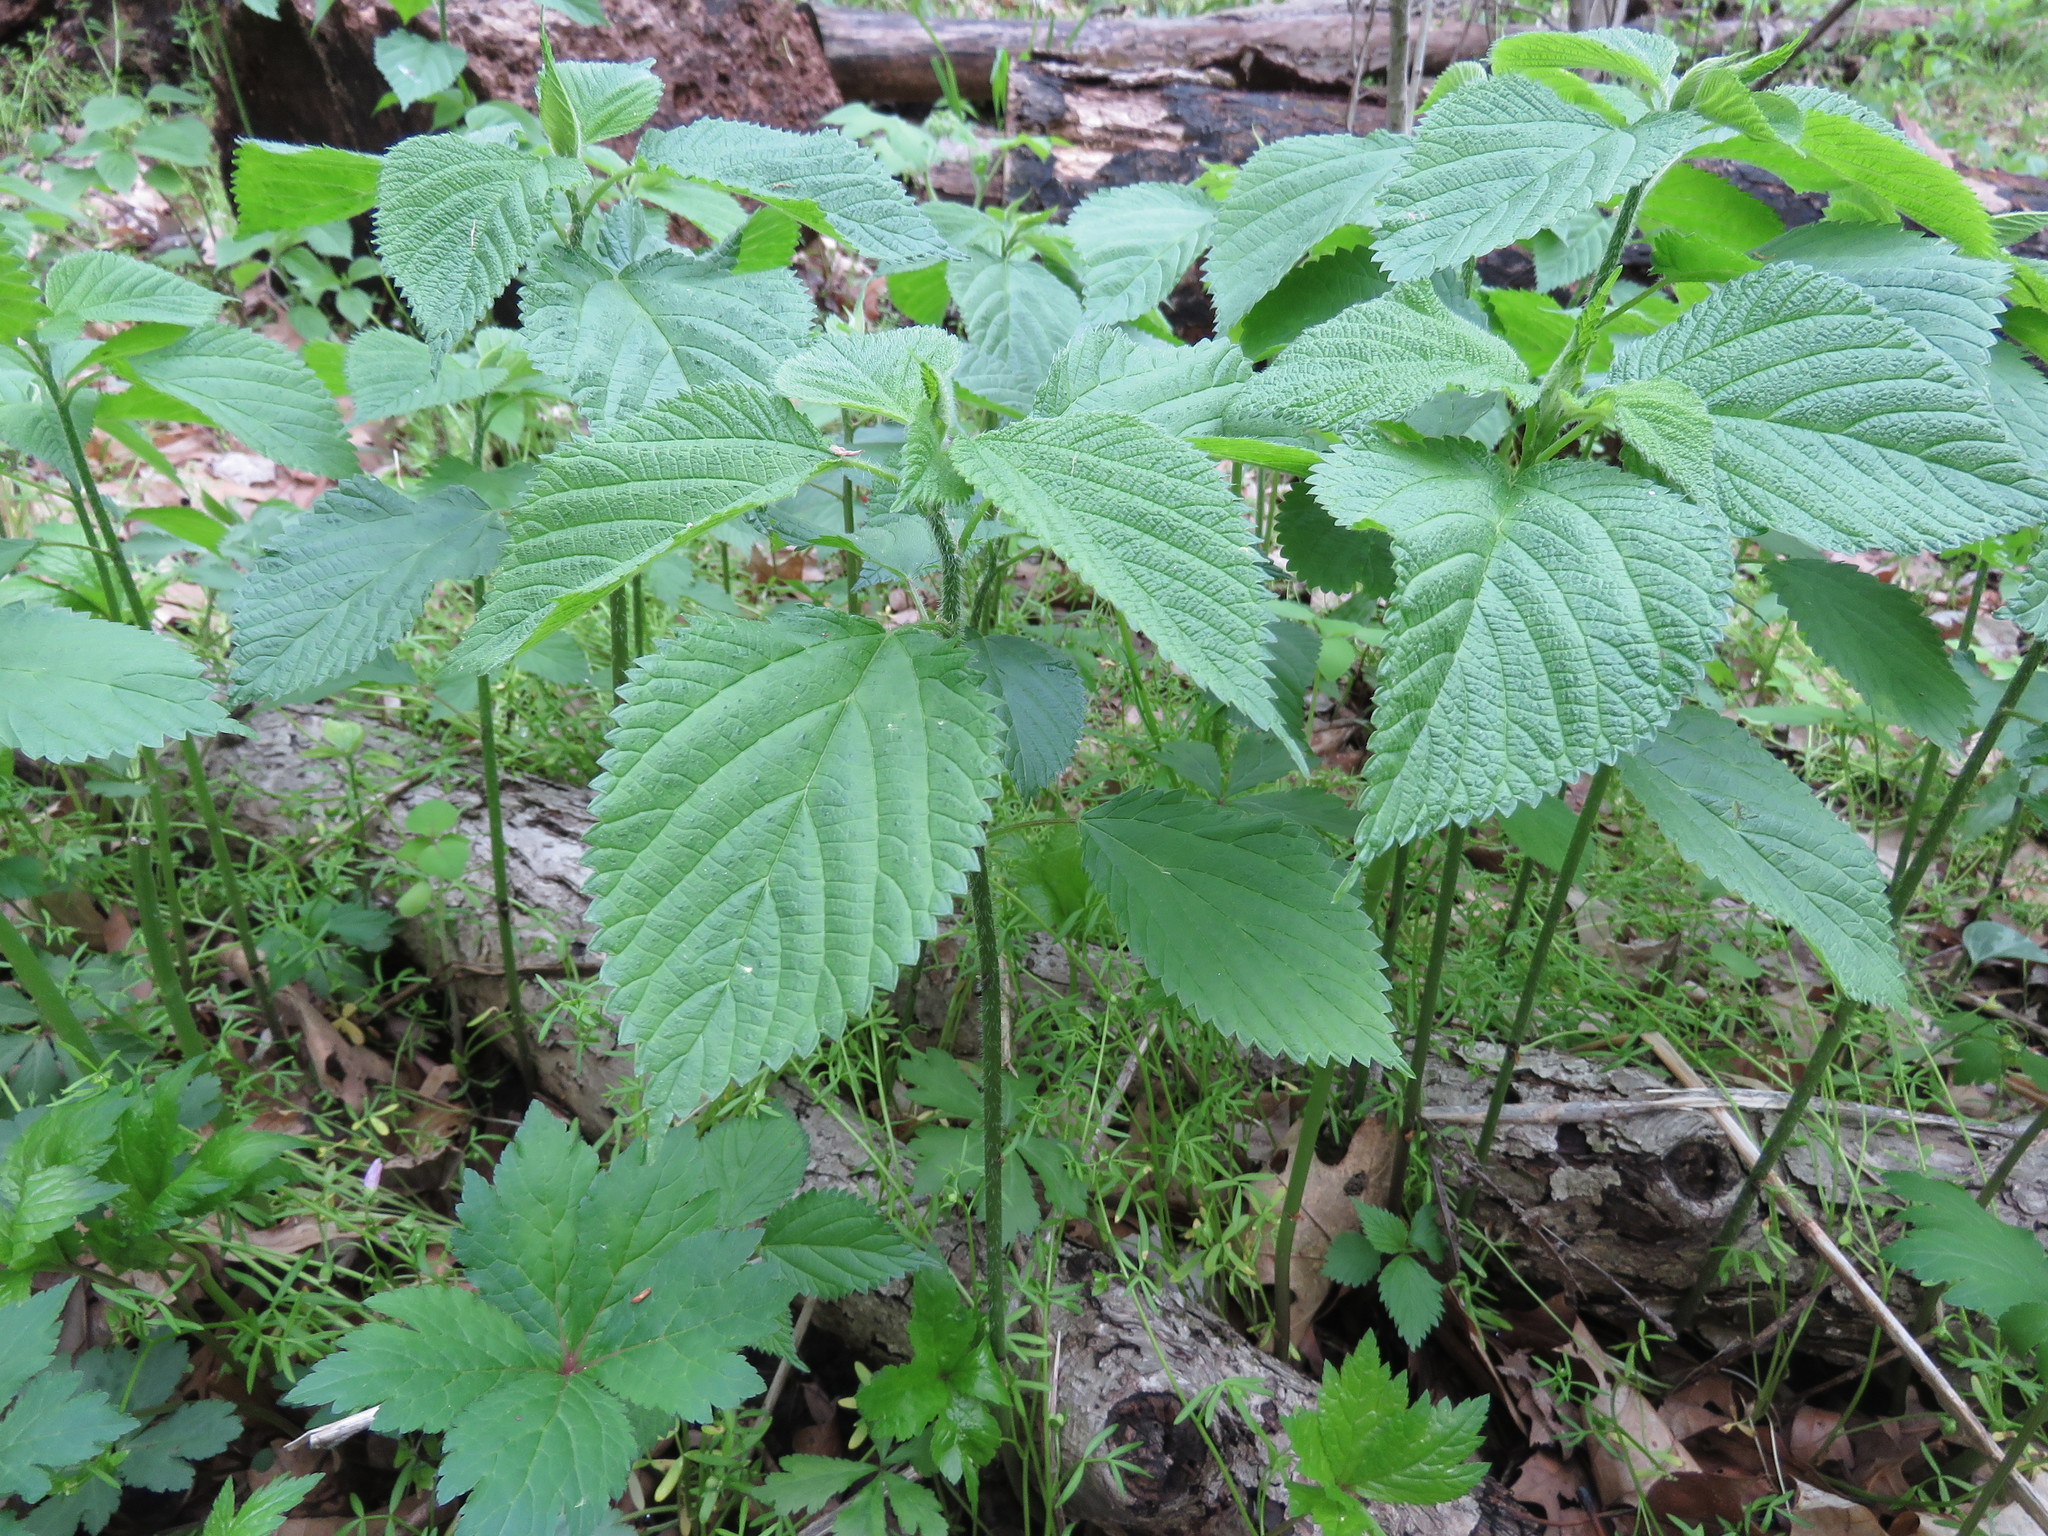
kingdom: Plantae
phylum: Tracheophyta
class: Magnoliopsida
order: Rosales
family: Urticaceae
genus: Laportea
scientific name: Laportea canadensis
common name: Canada nettle
